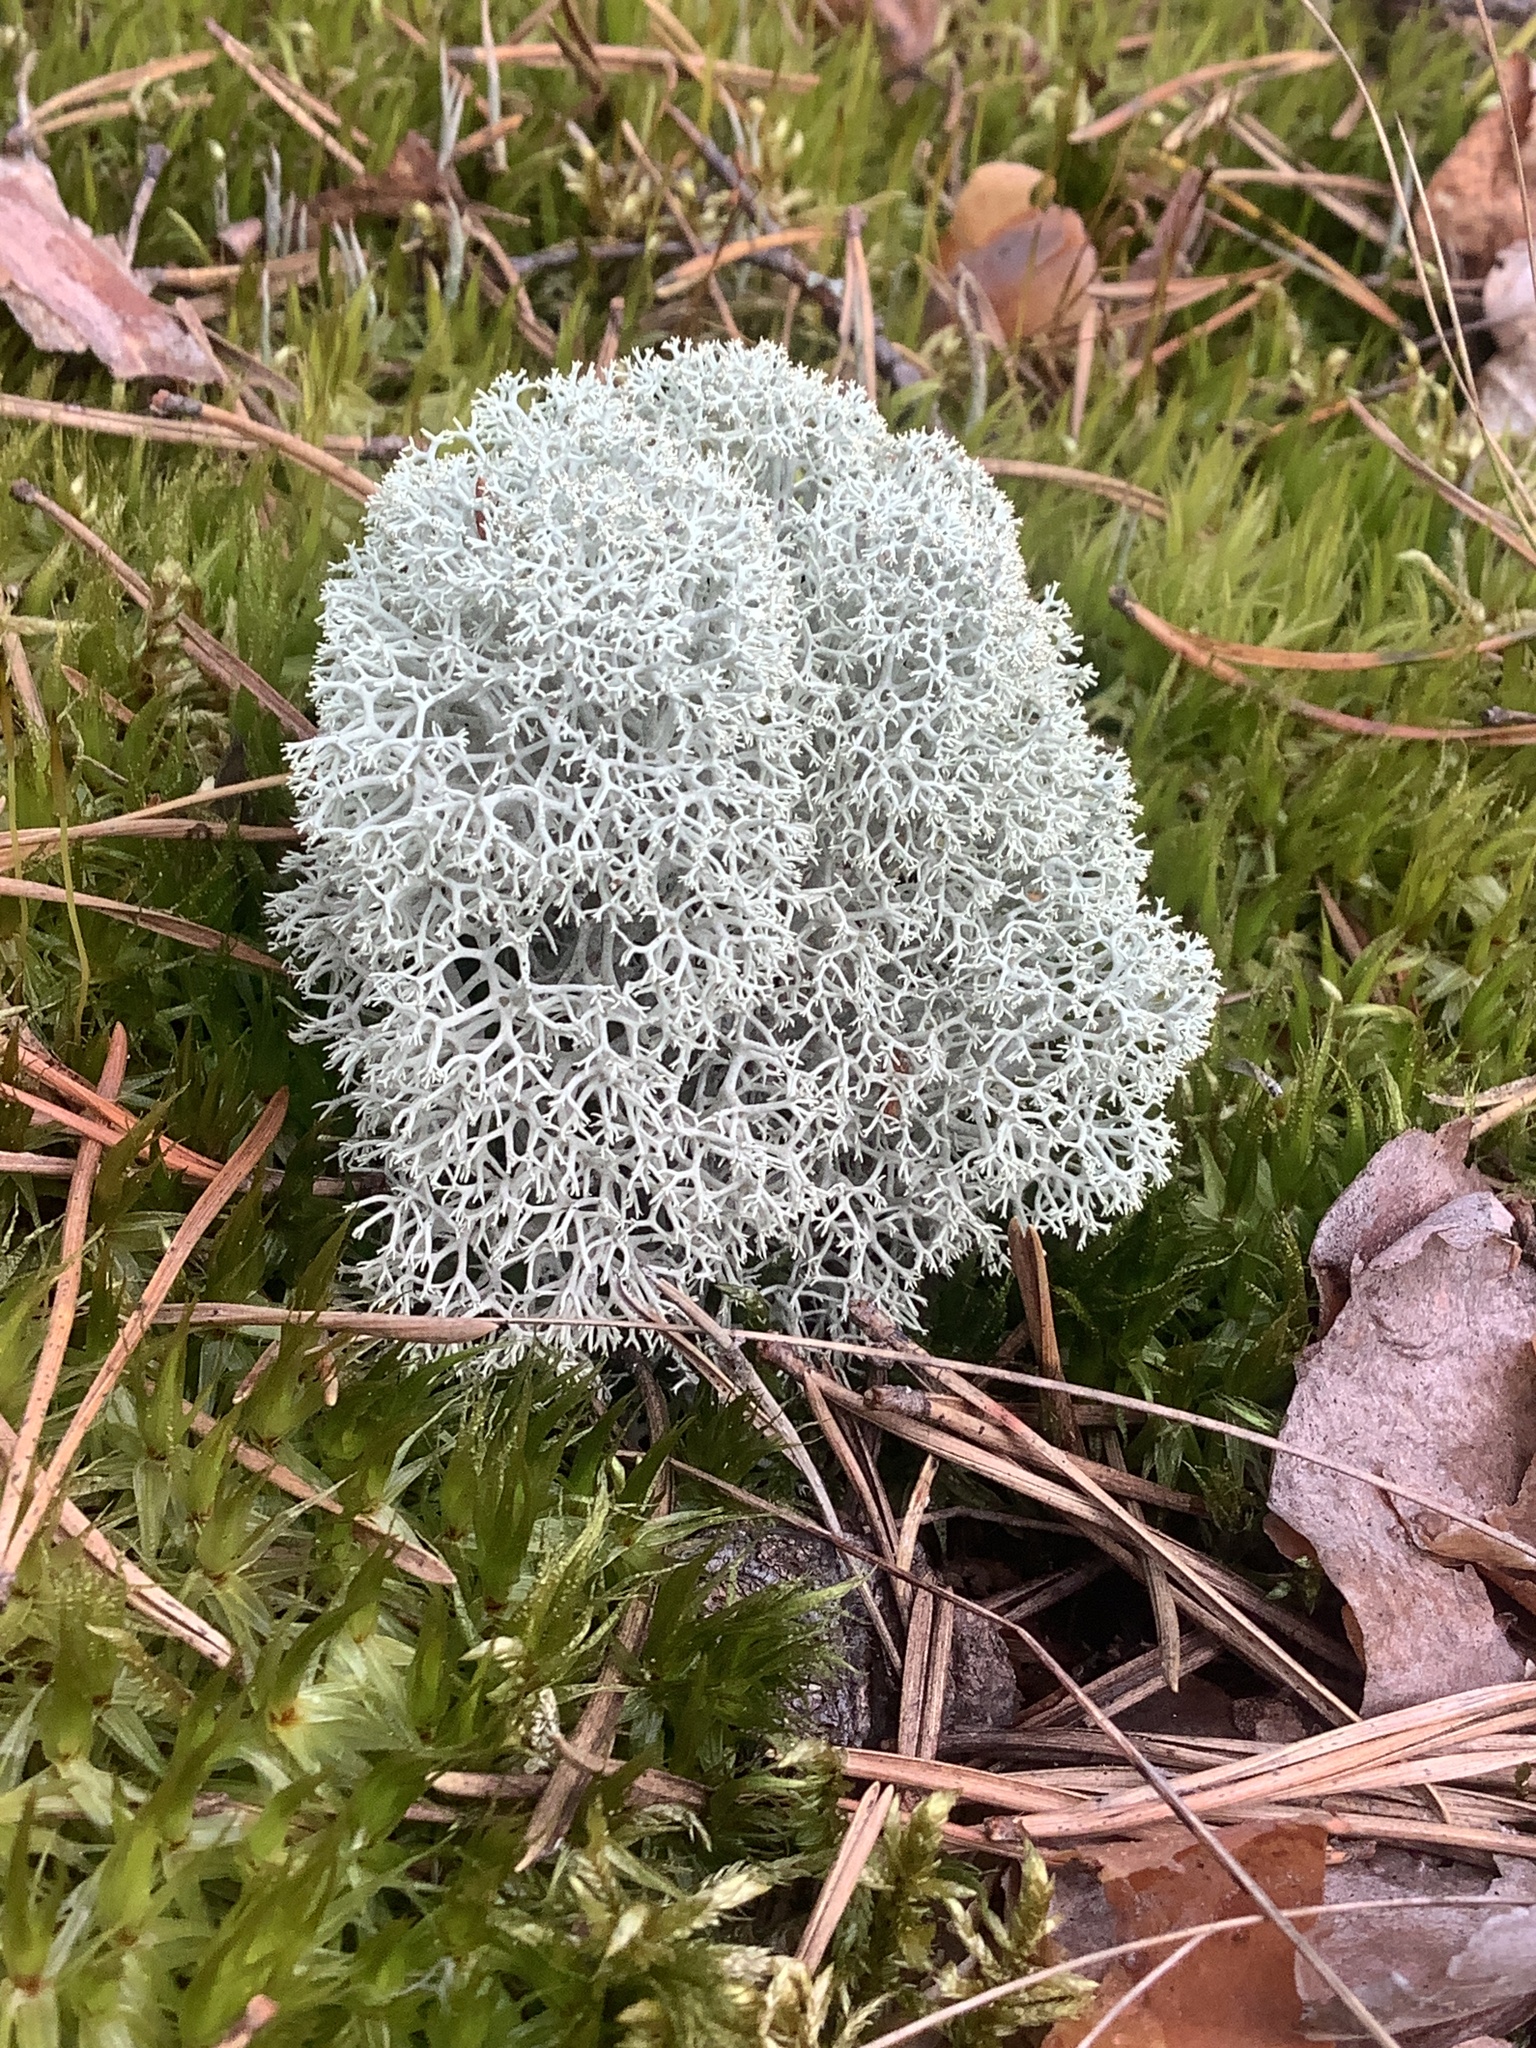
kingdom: Fungi
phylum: Ascomycota
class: Lecanoromycetes
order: Lecanorales
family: Cladoniaceae
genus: Cladonia
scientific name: Cladonia stellaris
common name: Star-tipped reindeer lichen
